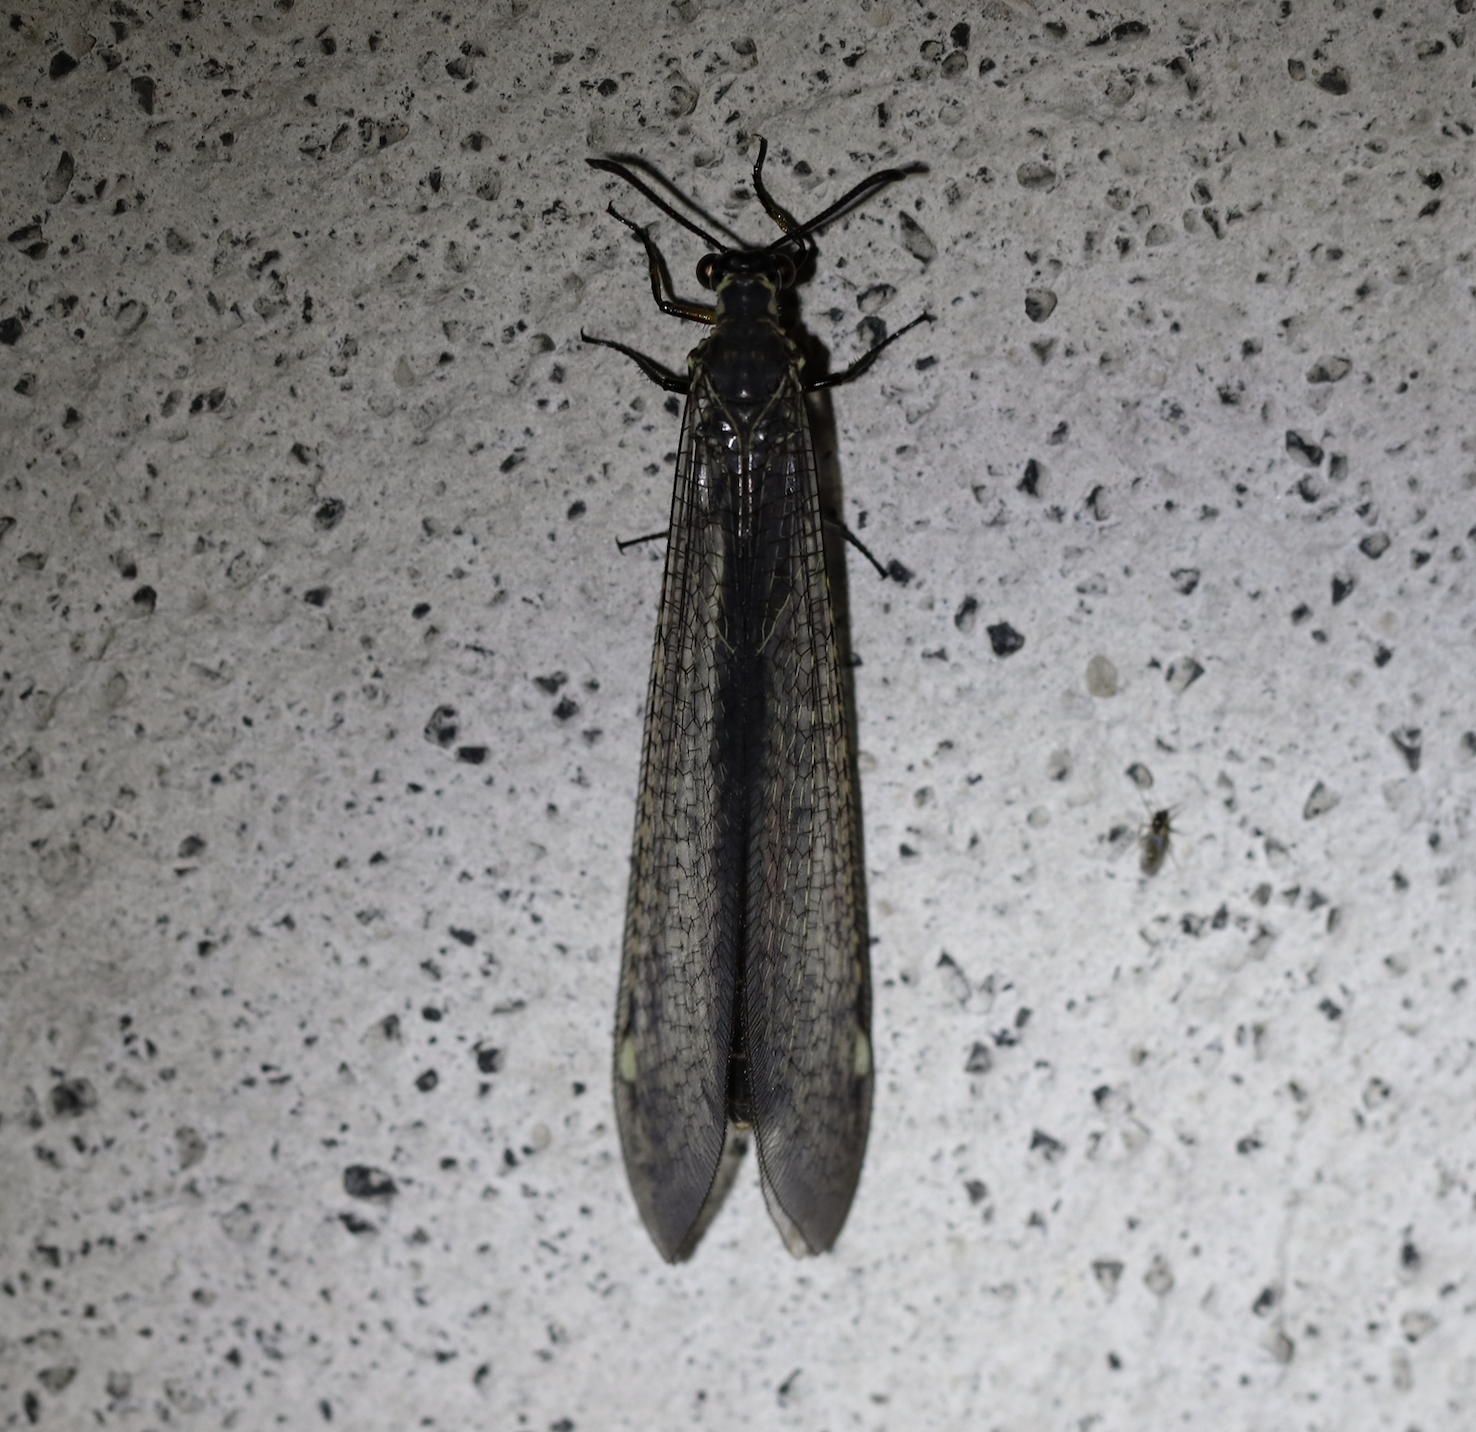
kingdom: Animalia
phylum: Arthropoda
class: Insecta
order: Neuroptera
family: Myrmeleontidae
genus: Myrmeleon
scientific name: Myrmeleon formicarius
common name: Ant-lion
